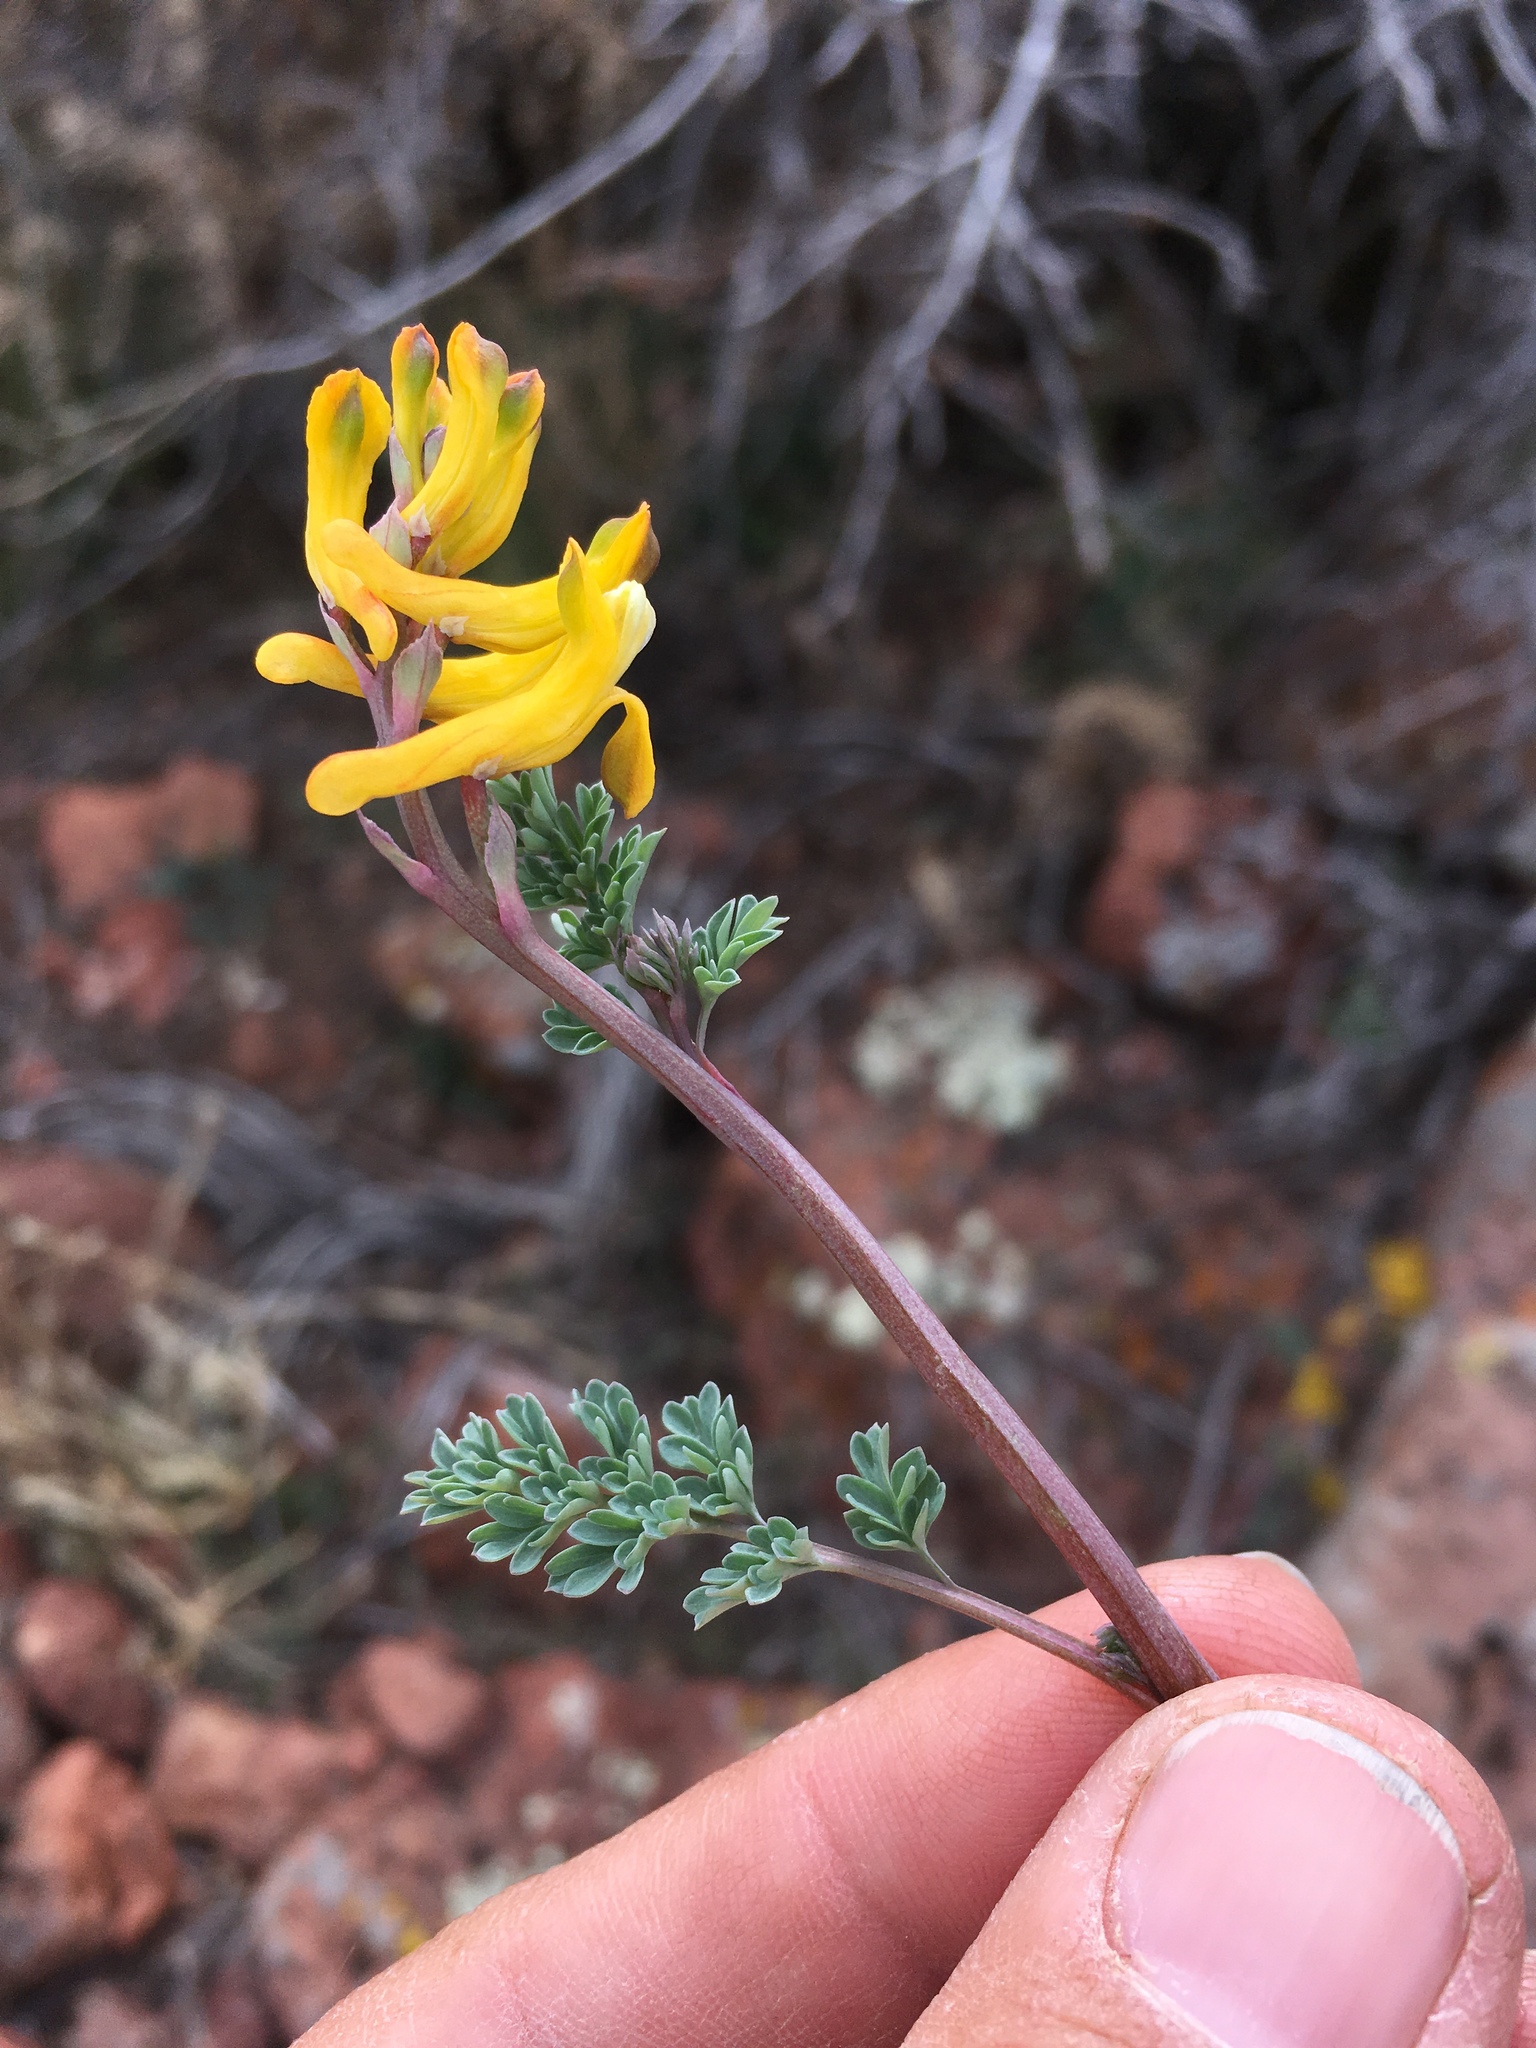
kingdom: Plantae
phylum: Tracheophyta
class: Magnoliopsida
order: Ranunculales
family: Papaveraceae
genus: Corydalis
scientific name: Corydalis aurea
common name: Golden corydalis
